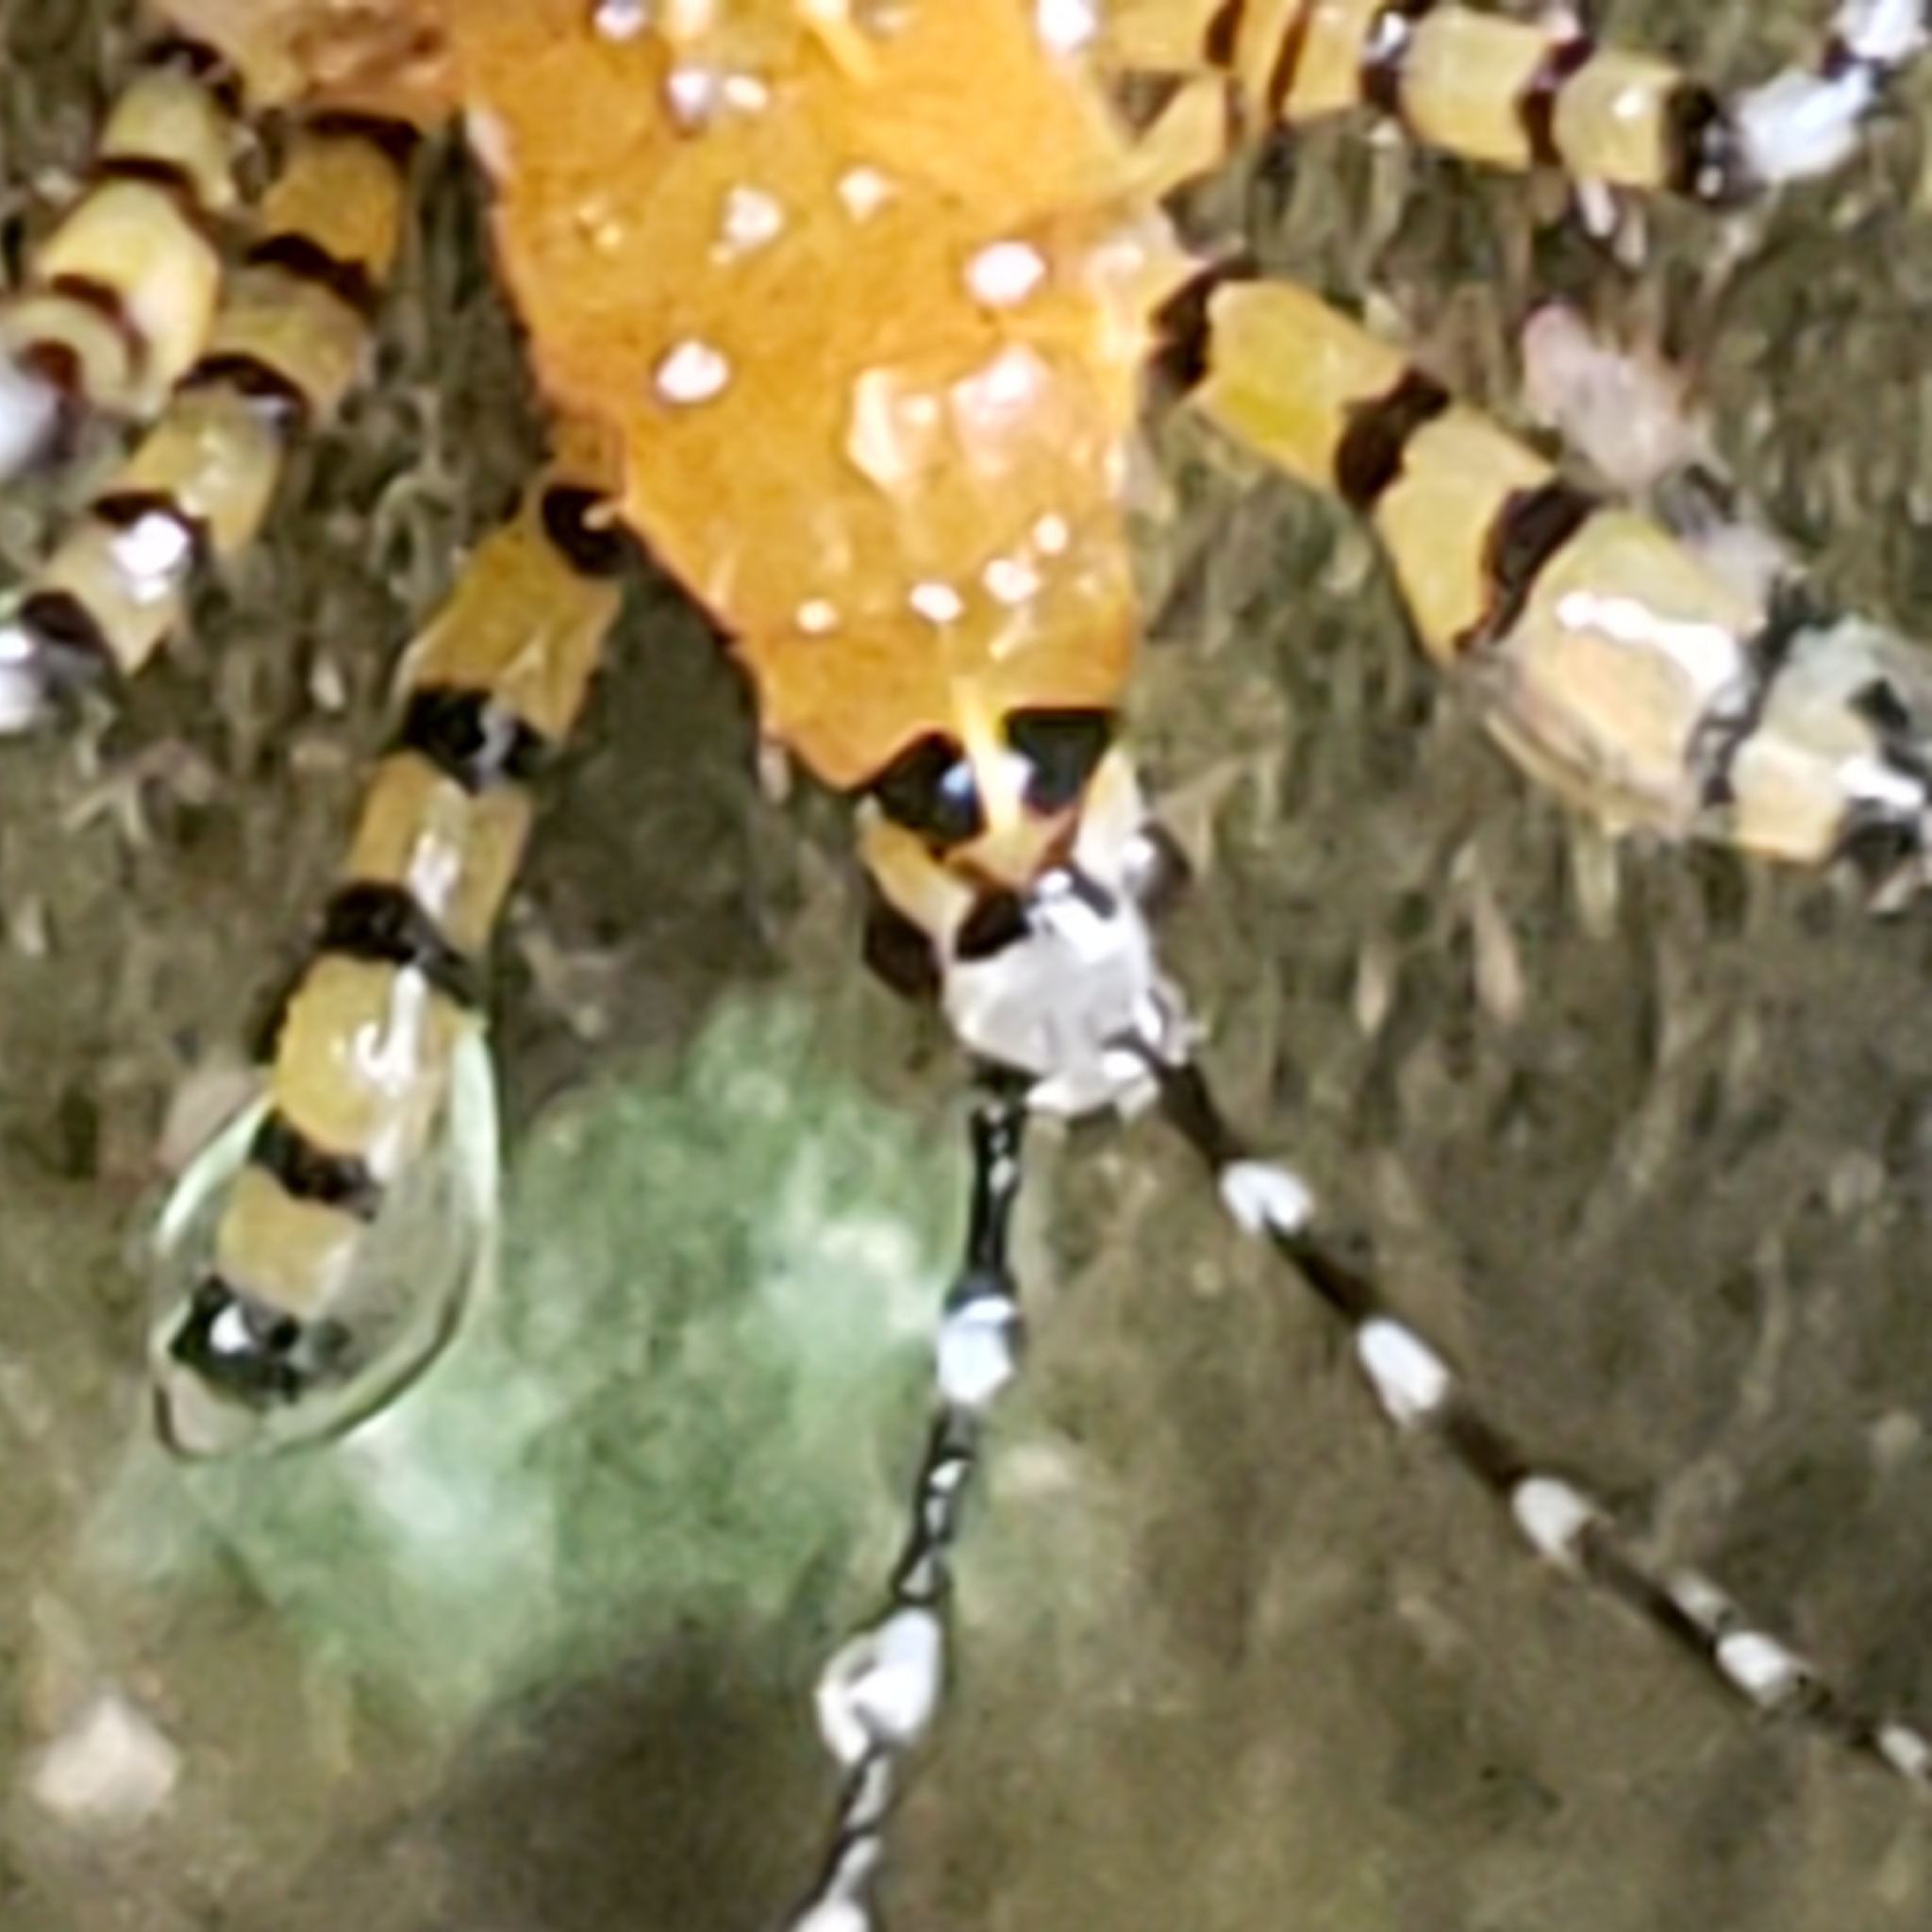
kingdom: Animalia
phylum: Arthropoda
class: Insecta
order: Hemiptera
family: Reduviidae
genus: Pselliopus
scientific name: Pselliopus barberi
